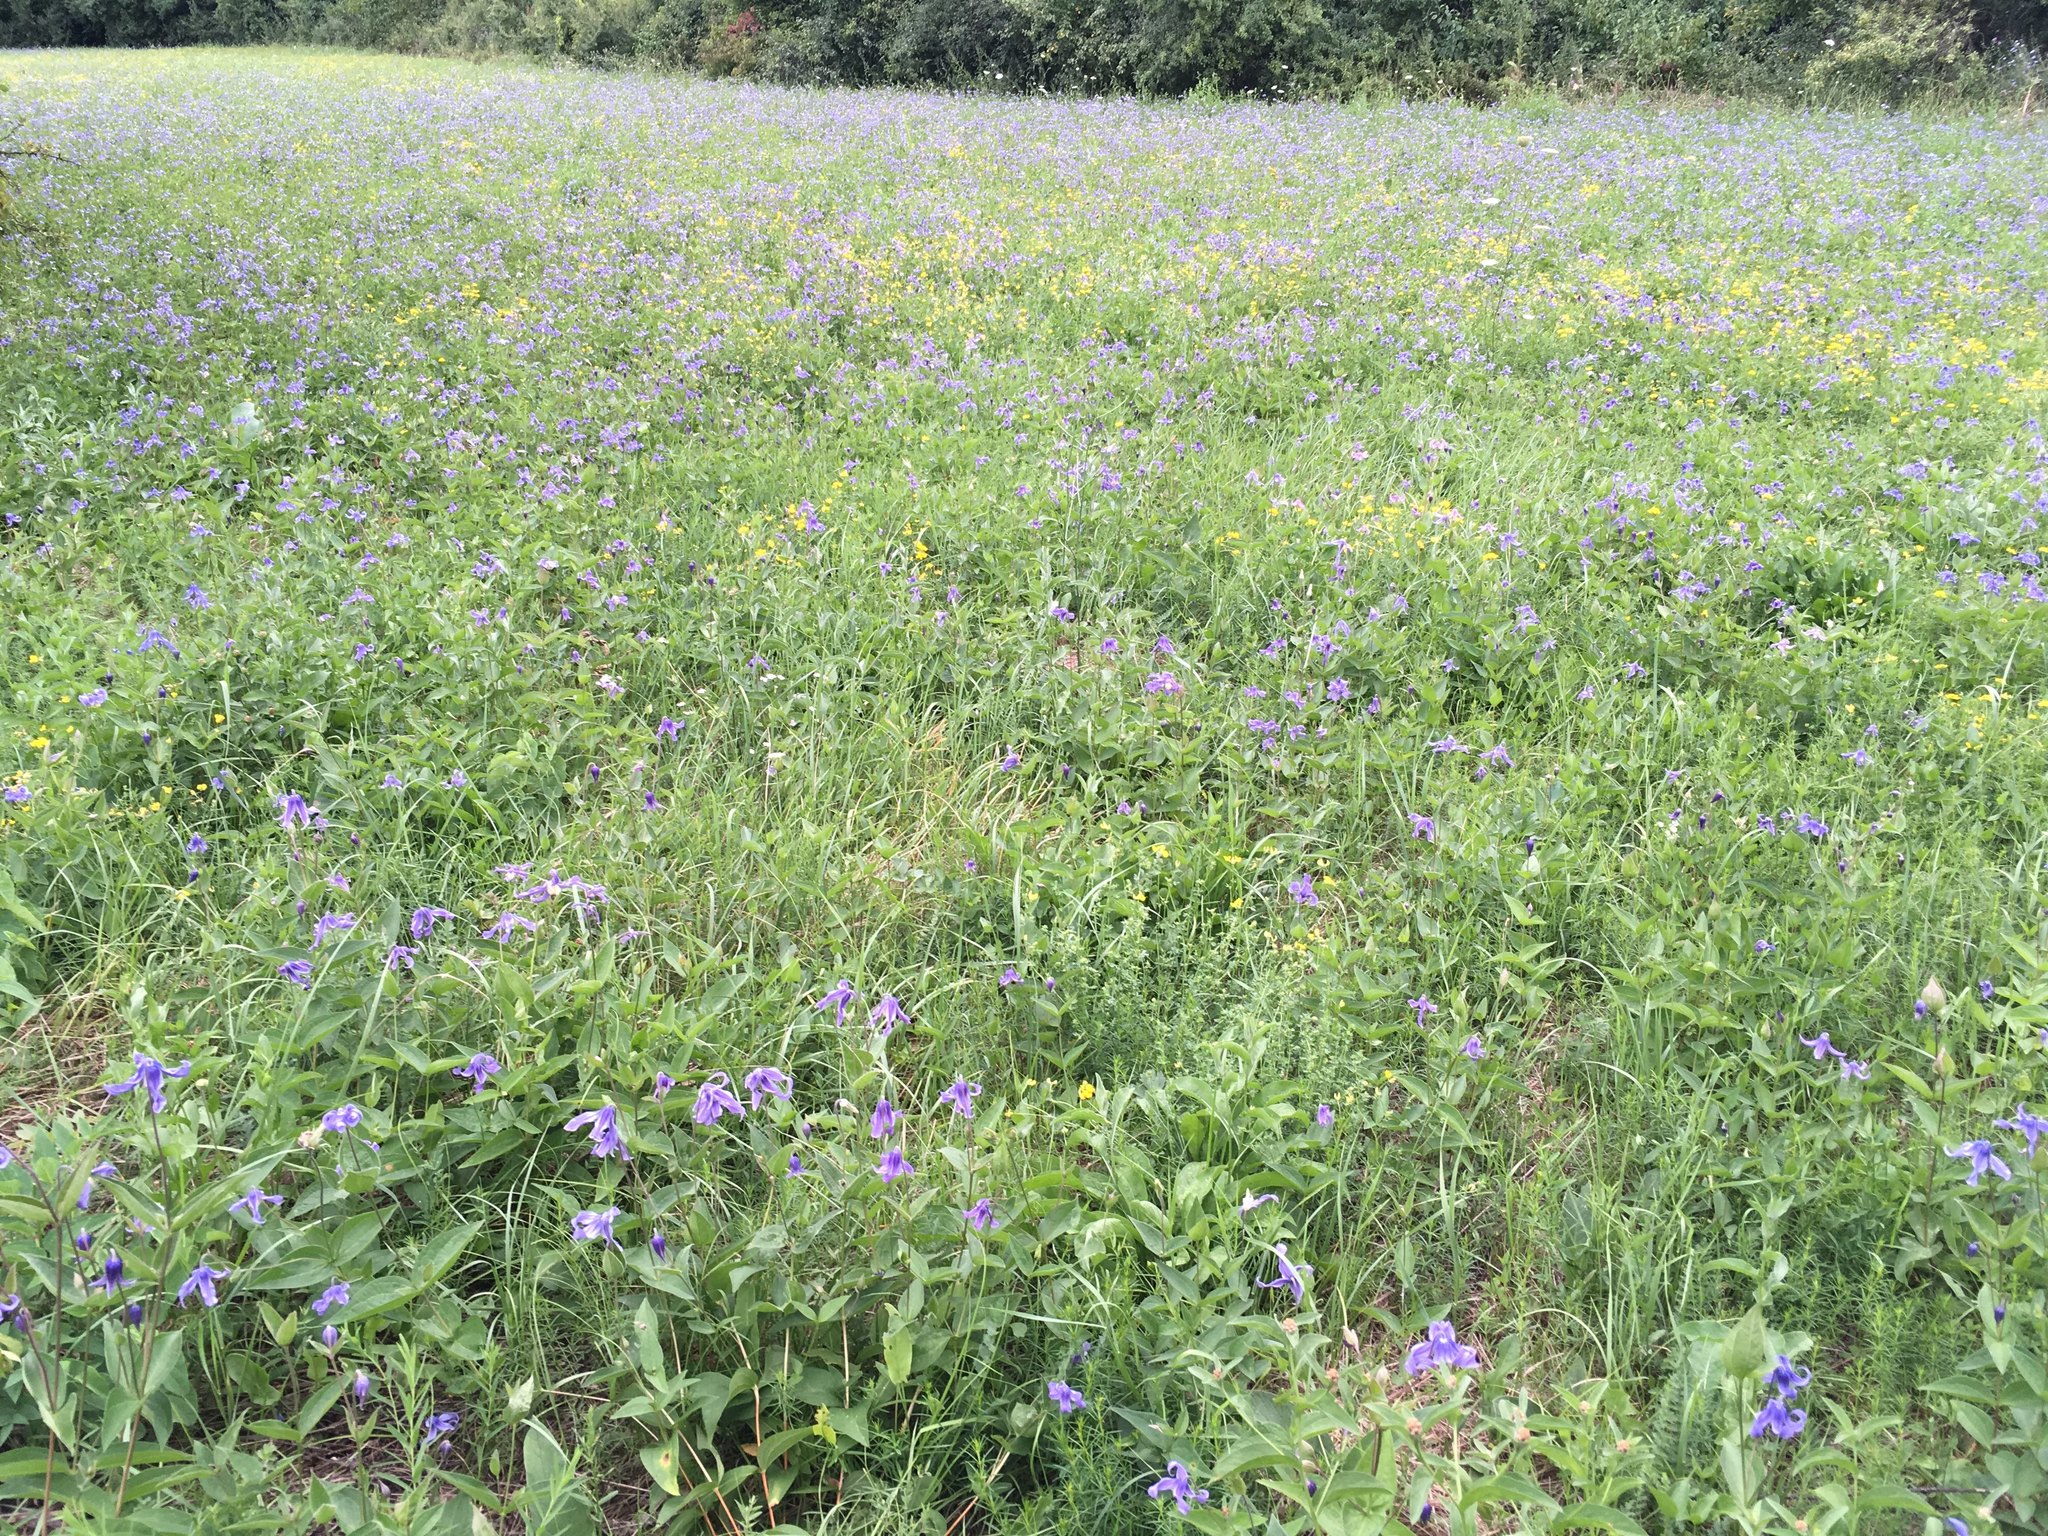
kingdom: Plantae
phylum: Tracheophyta
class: Magnoliopsida
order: Ranunculales
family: Ranunculaceae
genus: Clematis
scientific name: Clematis integrifolia
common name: Solitary clematis
